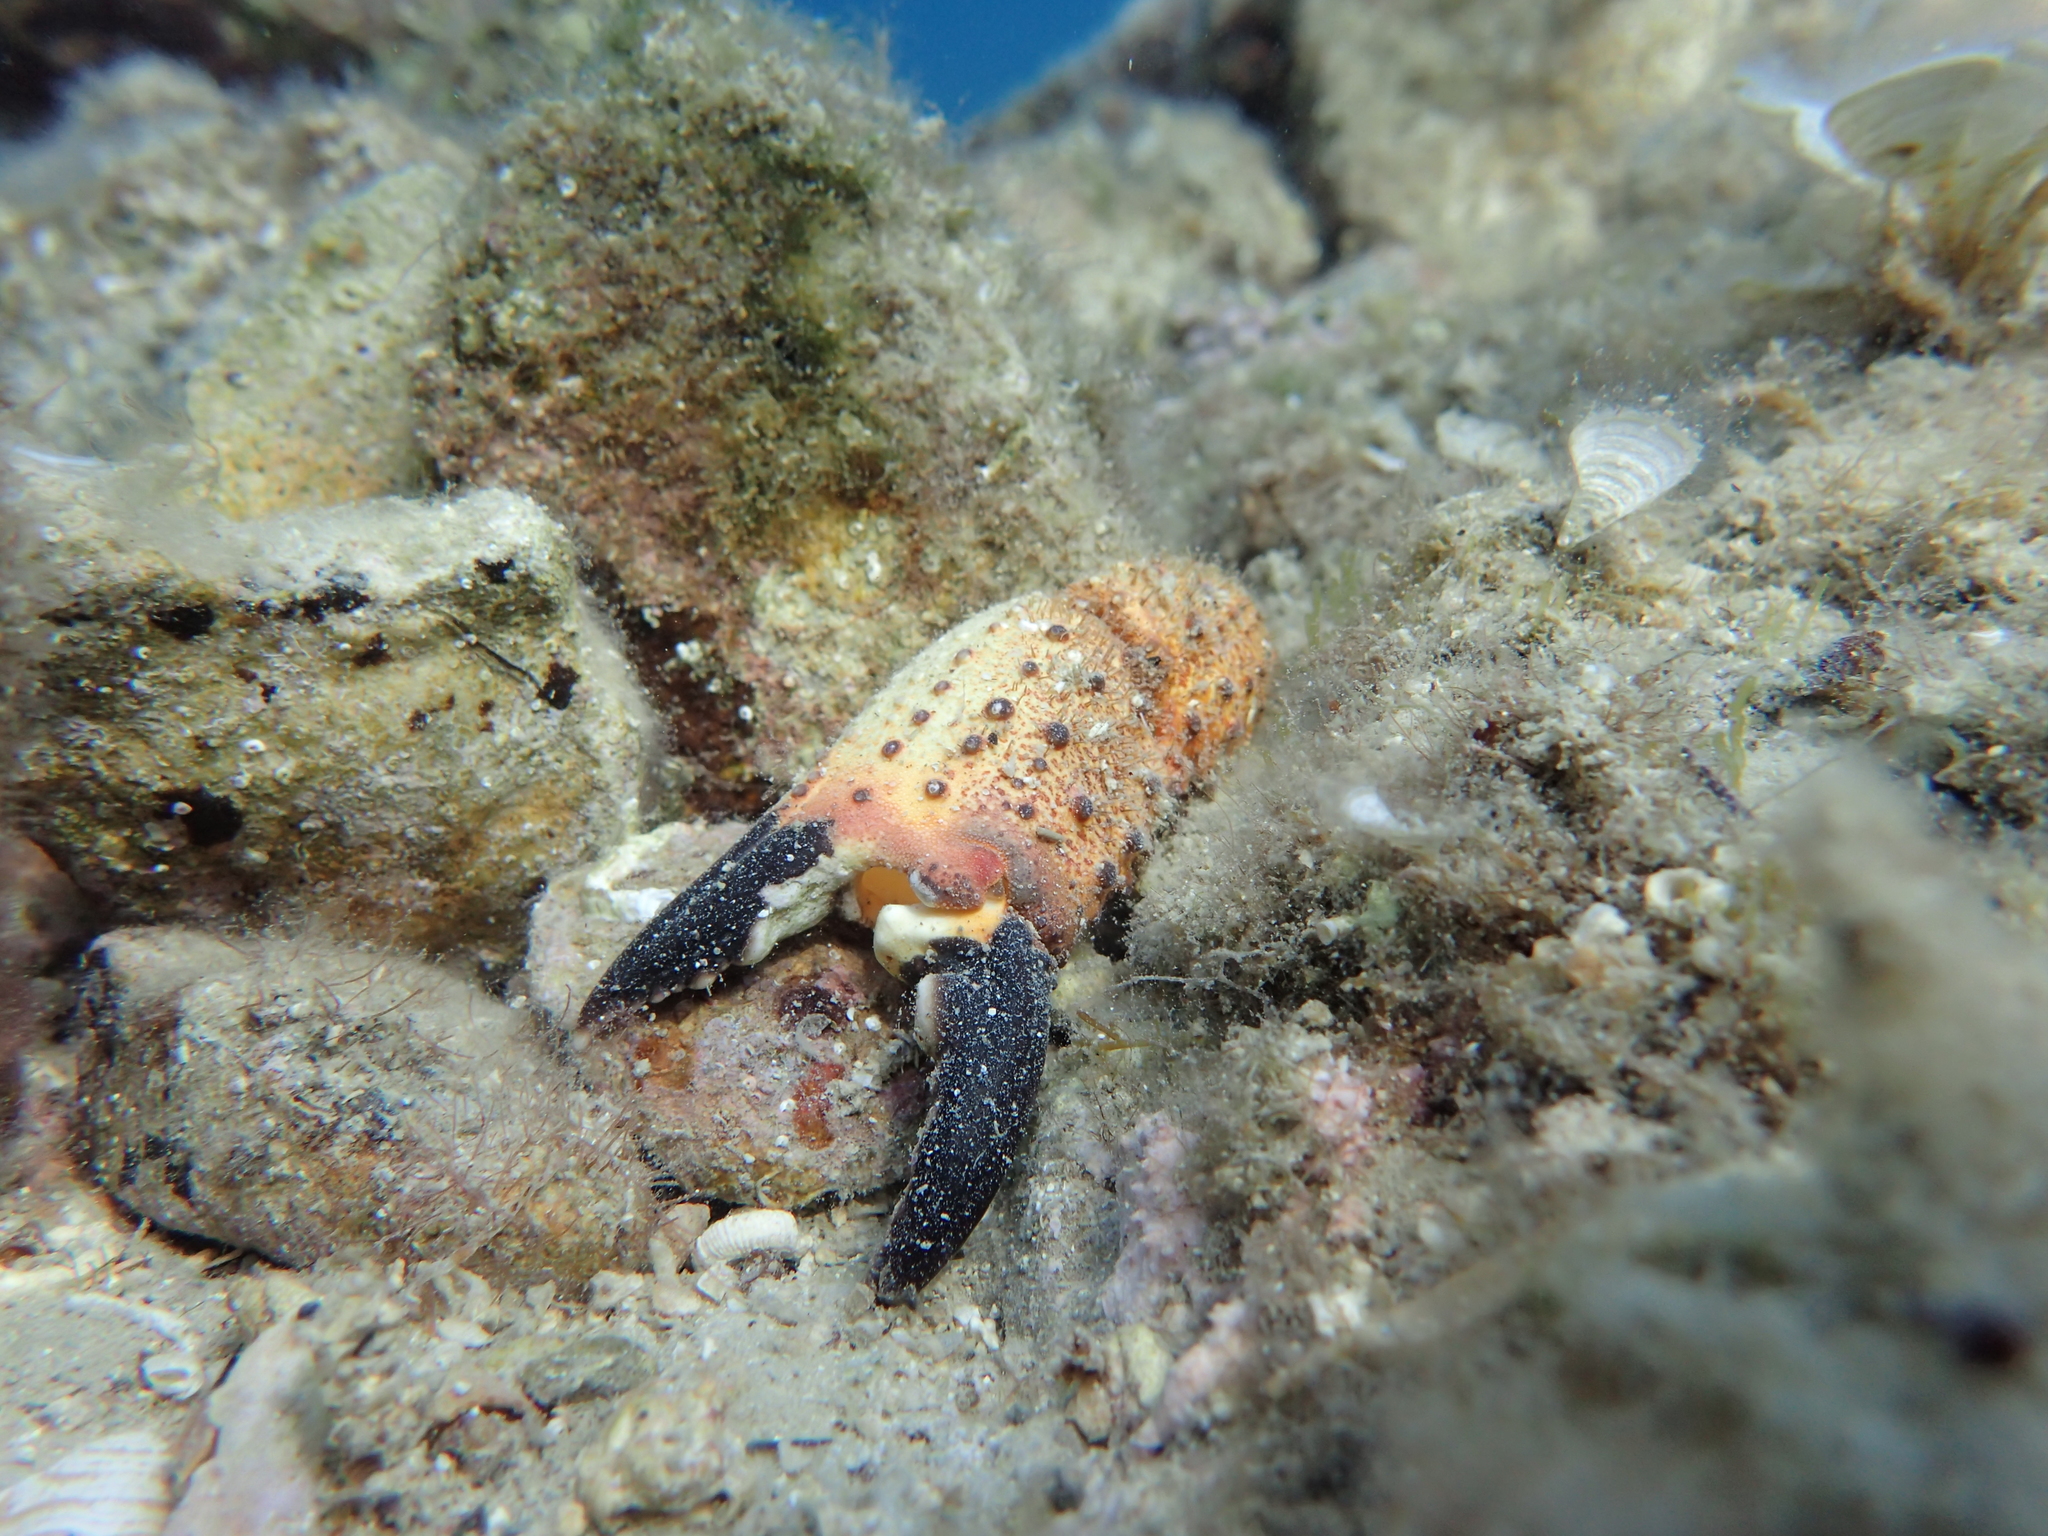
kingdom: Animalia
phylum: Arthropoda
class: Malacostraca
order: Decapoda
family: Eriphiidae
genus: Eriphia
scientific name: Eriphia verrucosa
